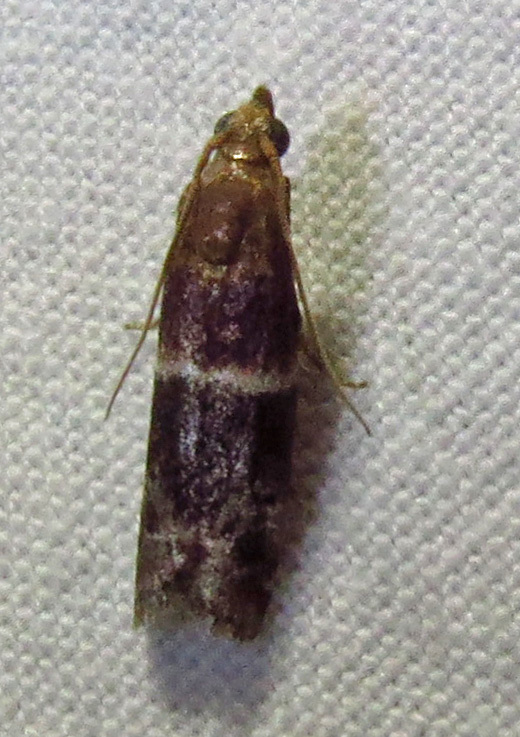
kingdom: Animalia
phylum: Arthropoda
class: Insecta
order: Lepidoptera
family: Pyralidae
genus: Moodna
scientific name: Moodna ostrinella
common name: Darker moodna moth
